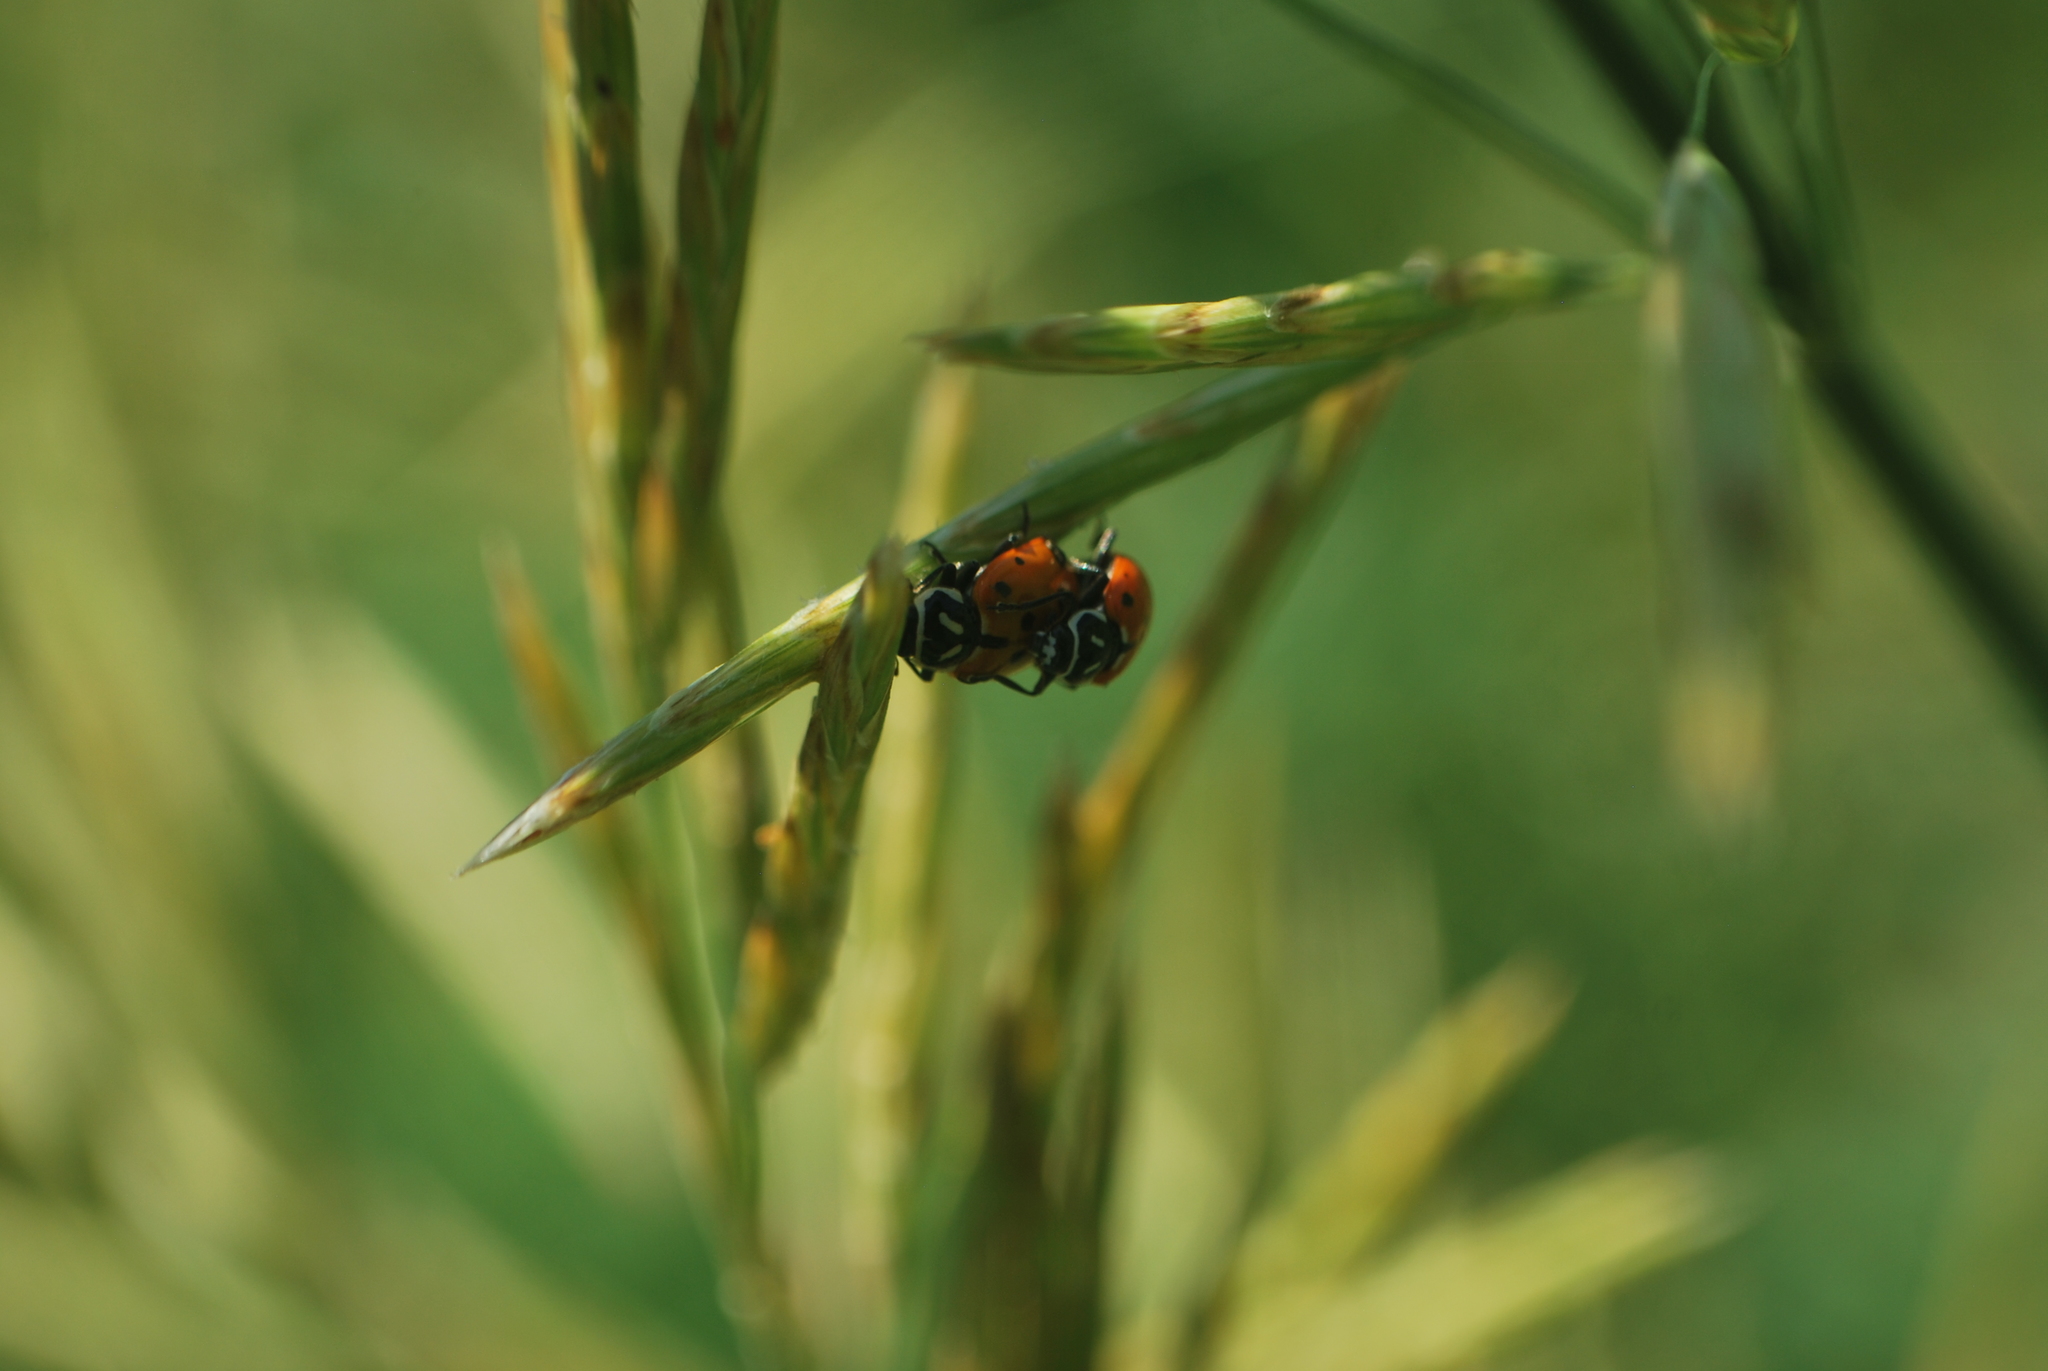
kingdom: Animalia
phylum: Arthropoda
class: Insecta
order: Coleoptera
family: Coccinellidae
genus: Hippodamia
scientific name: Hippodamia convergens
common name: Convergent lady beetle
